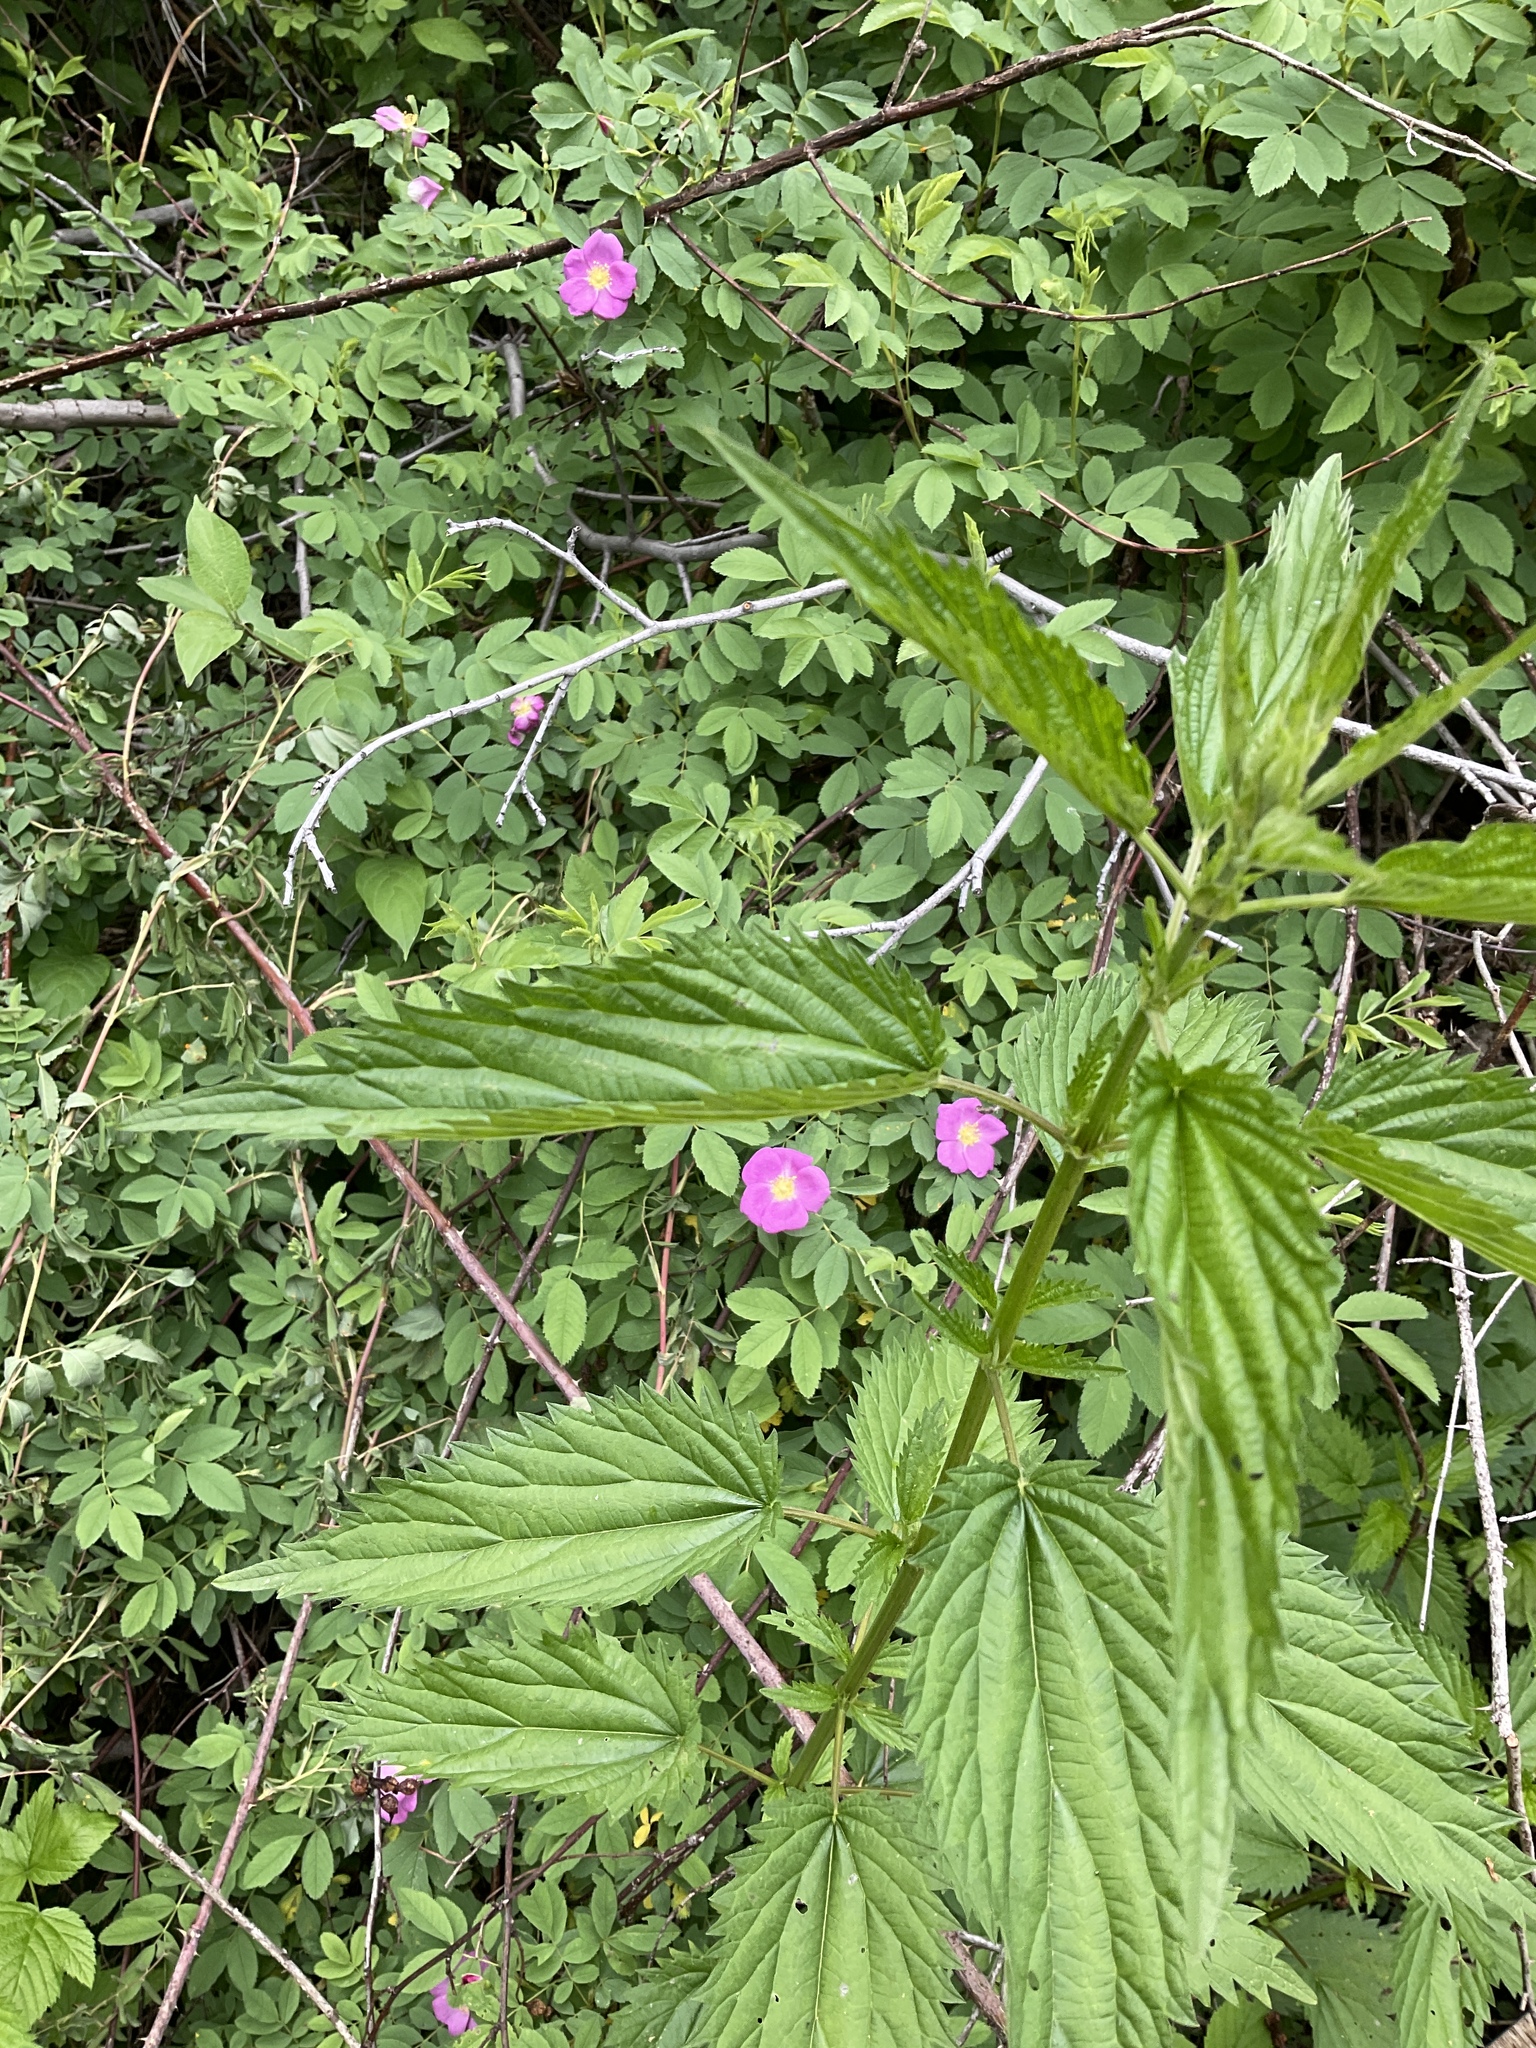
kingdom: Plantae
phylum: Tracheophyta
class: Magnoliopsida
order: Rosales
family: Urticaceae
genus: Urtica
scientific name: Urtica dioica
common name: Common nettle
